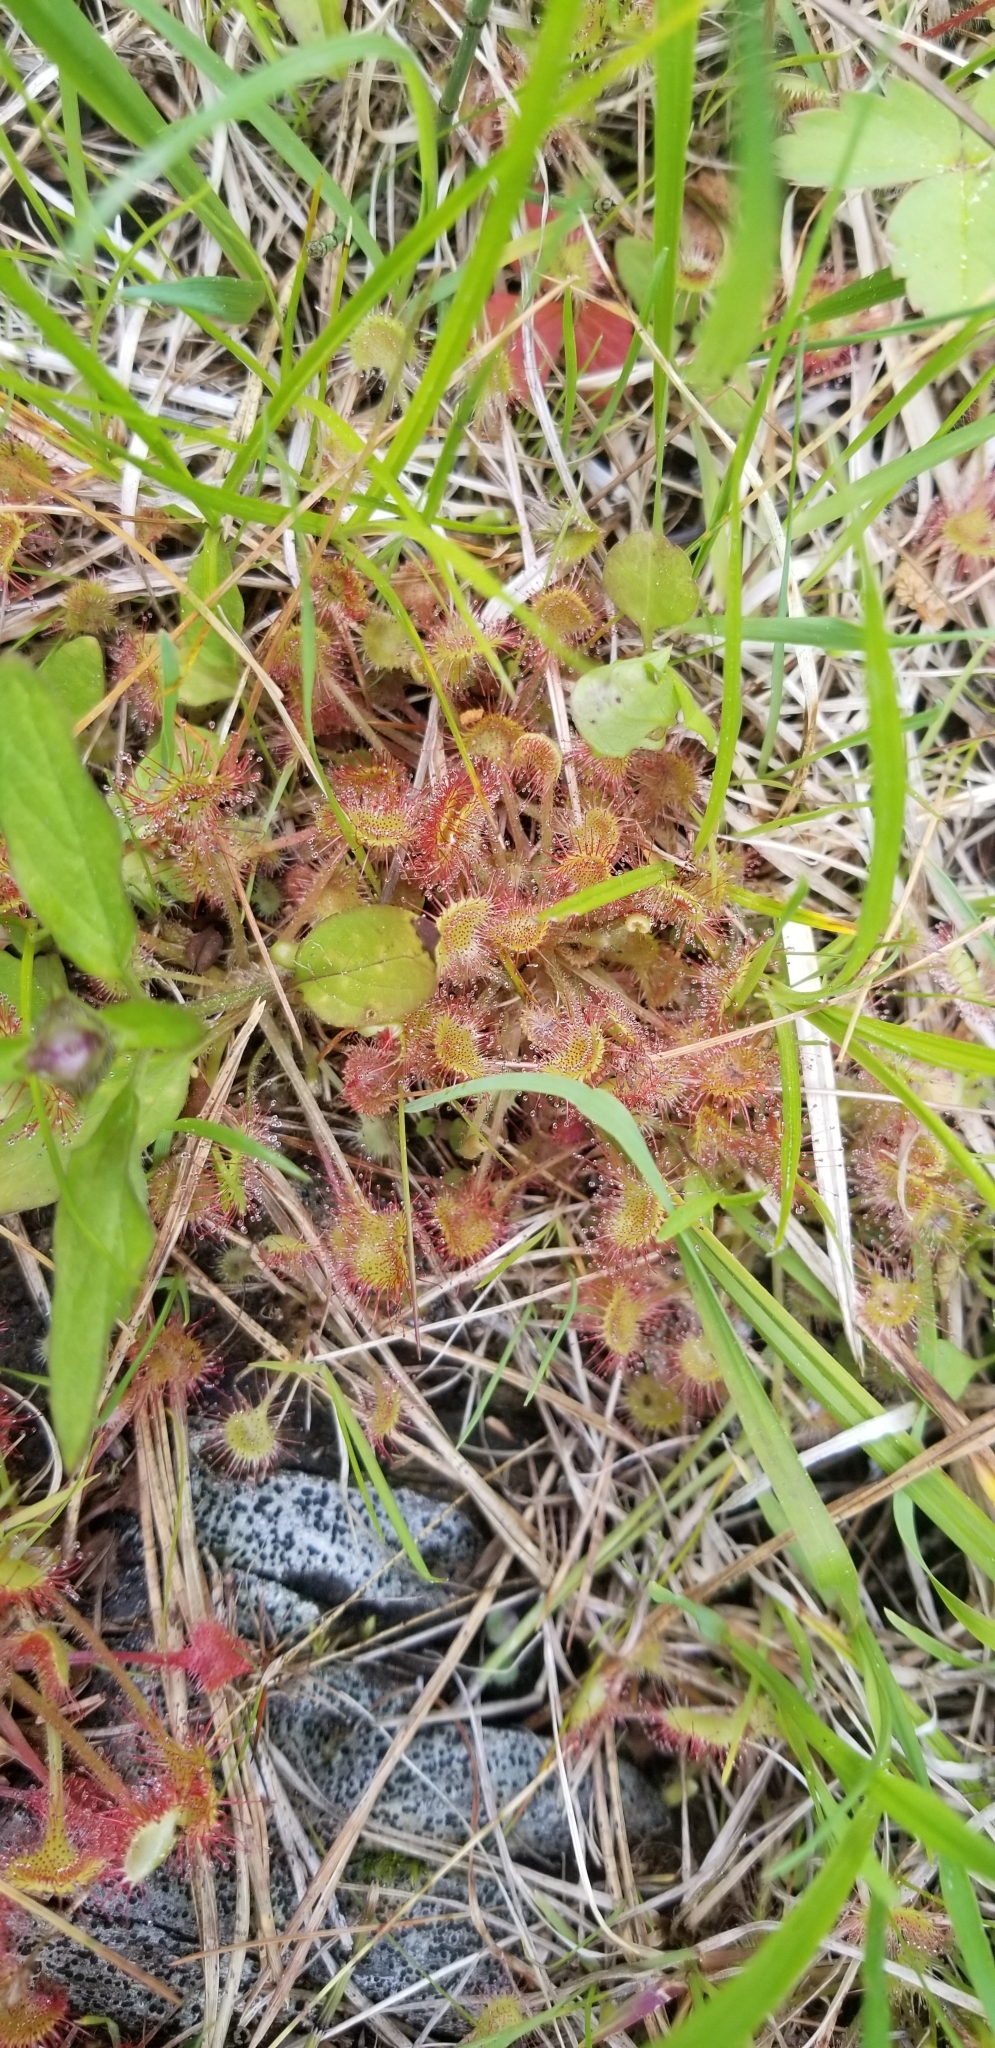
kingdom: Plantae
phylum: Tracheophyta
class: Magnoliopsida
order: Caryophyllales
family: Droseraceae
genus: Drosera
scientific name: Drosera rotundifolia
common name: Round-leaved sundew
